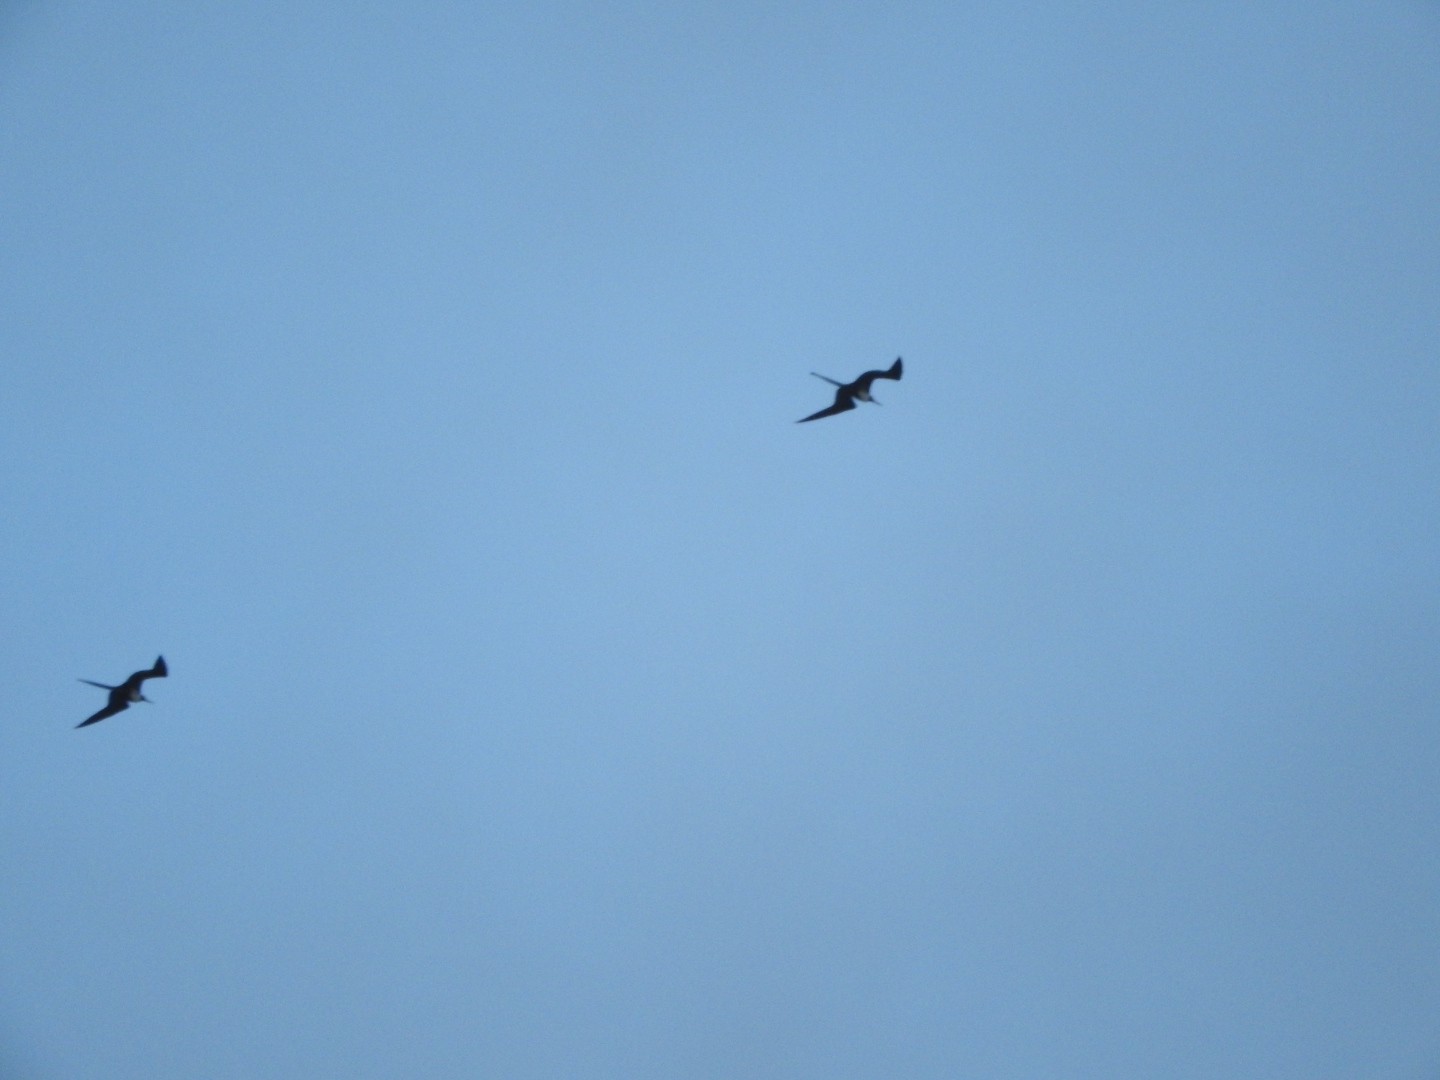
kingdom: Animalia
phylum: Chordata
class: Aves
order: Suliformes
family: Fregatidae
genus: Fregata
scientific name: Fregata magnificens
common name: Magnificent frigatebird
